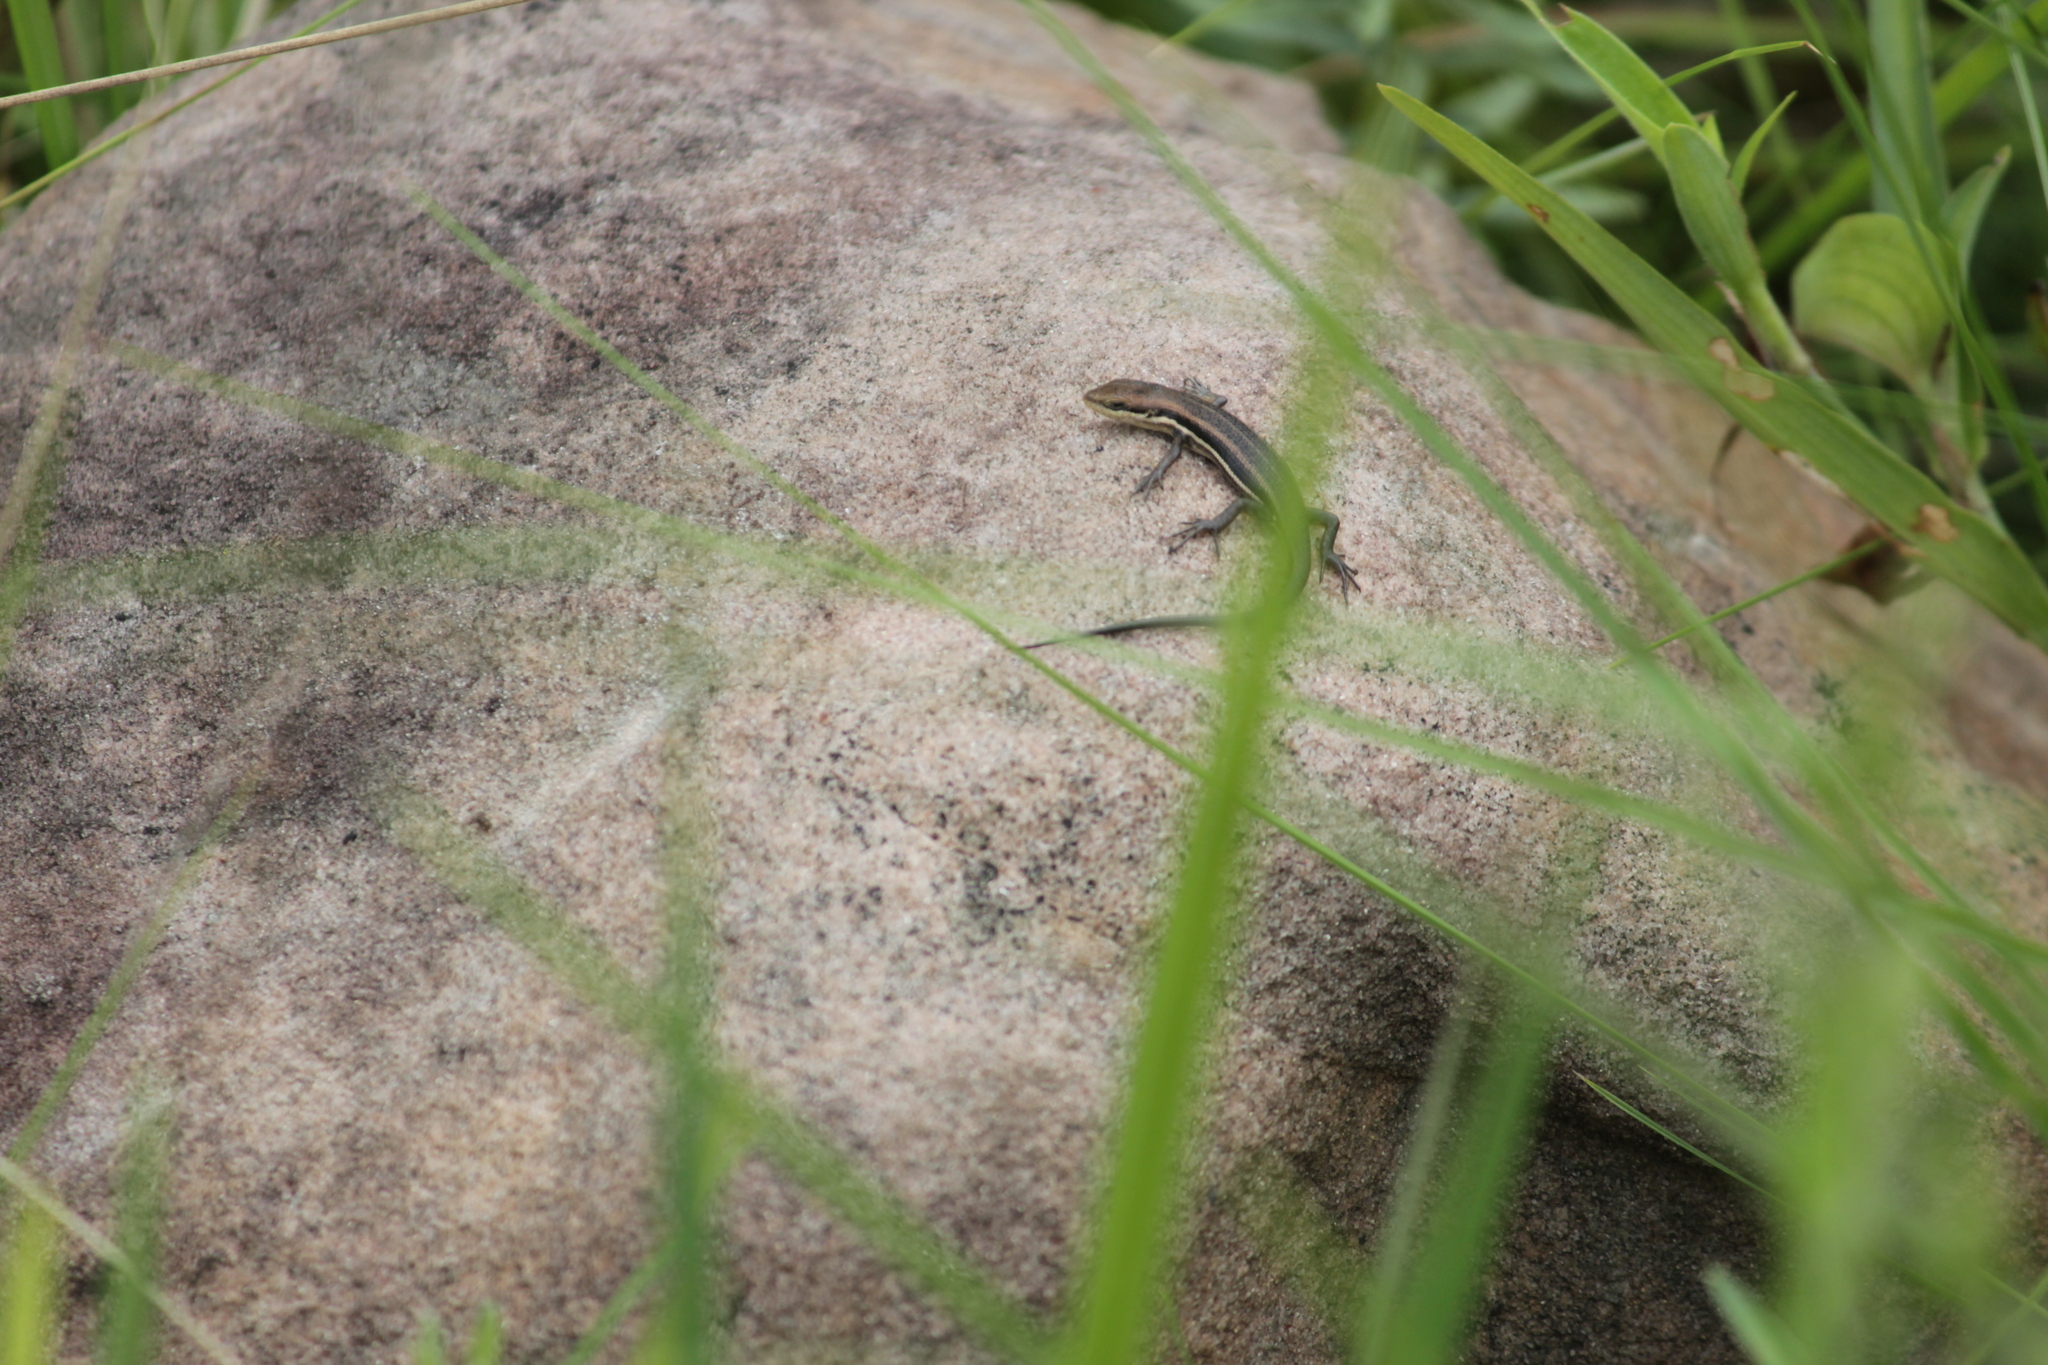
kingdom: Animalia
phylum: Chordata
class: Squamata
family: Scincidae
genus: Trachylepis
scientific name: Trachylepis varia
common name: Eastern variable skink
